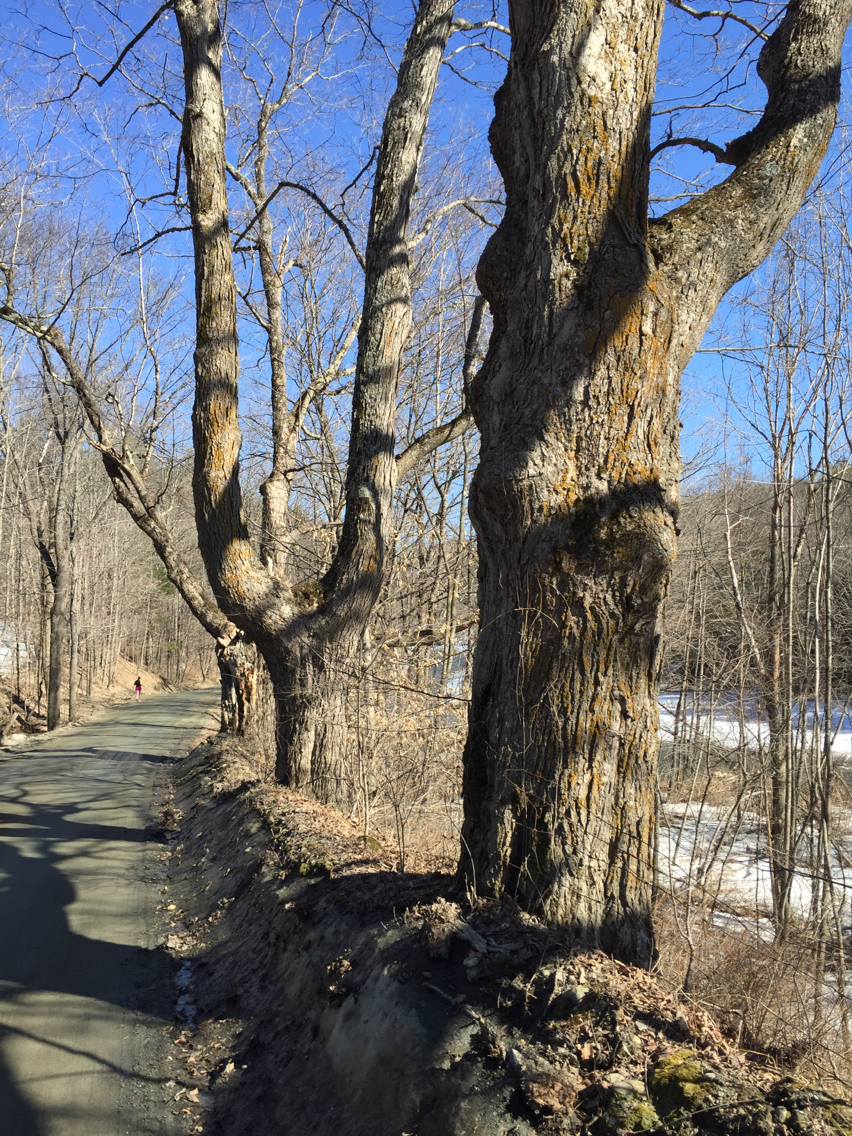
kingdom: Plantae
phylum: Tracheophyta
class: Magnoliopsida
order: Sapindales
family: Sapindaceae
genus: Acer
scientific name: Acer saccharum
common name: Sugar maple
